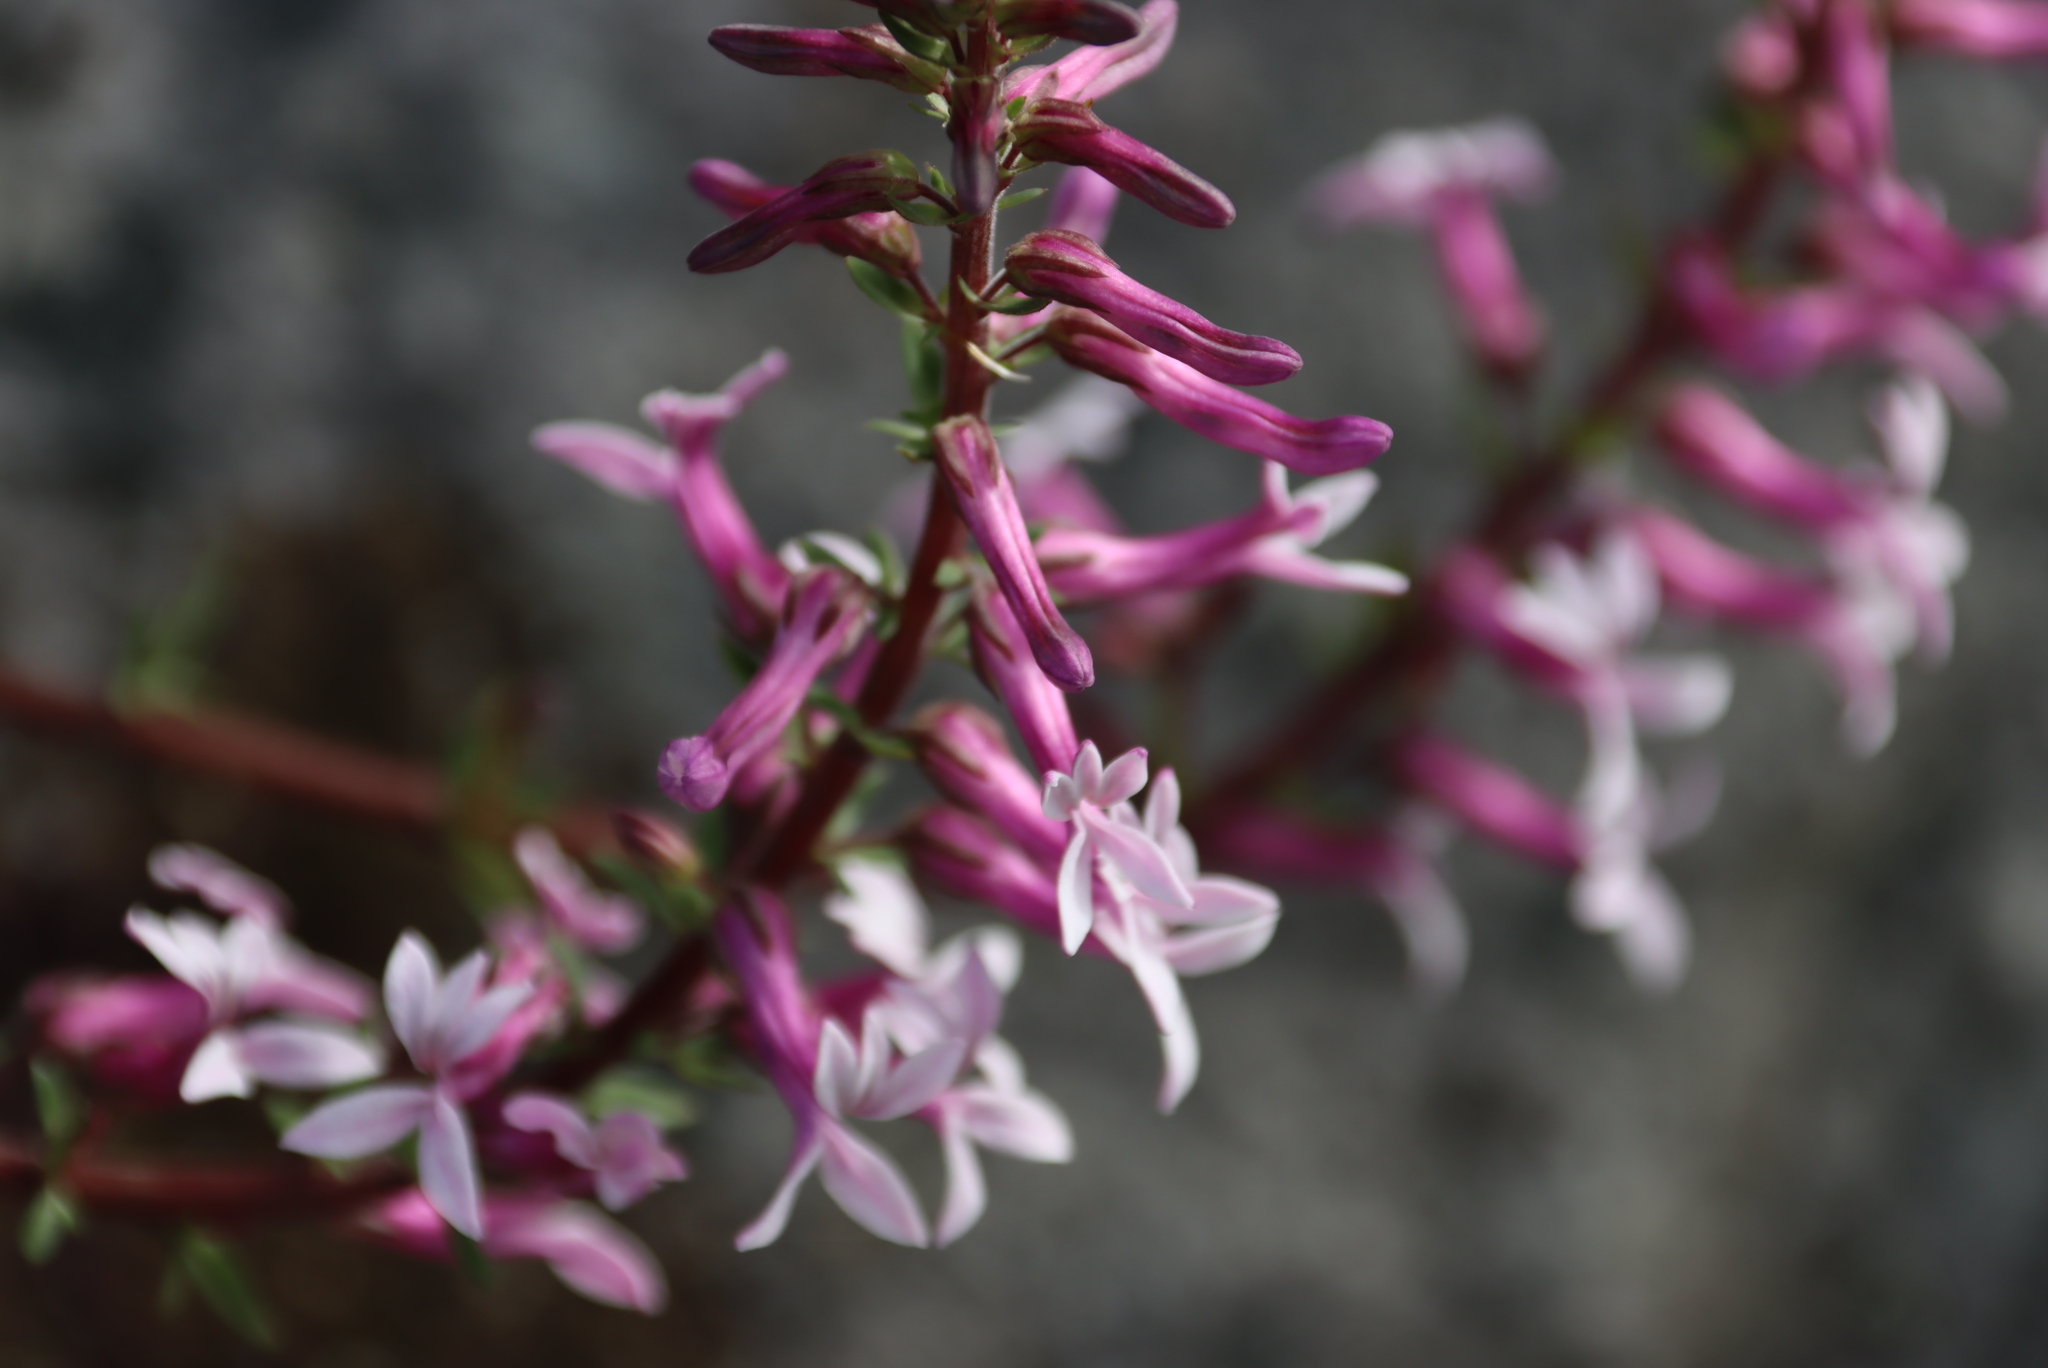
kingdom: Plantae
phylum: Tracheophyta
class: Magnoliopsida
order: Asterales
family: Campanulaceae
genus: Cyphia
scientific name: Cyphia bulbosa
